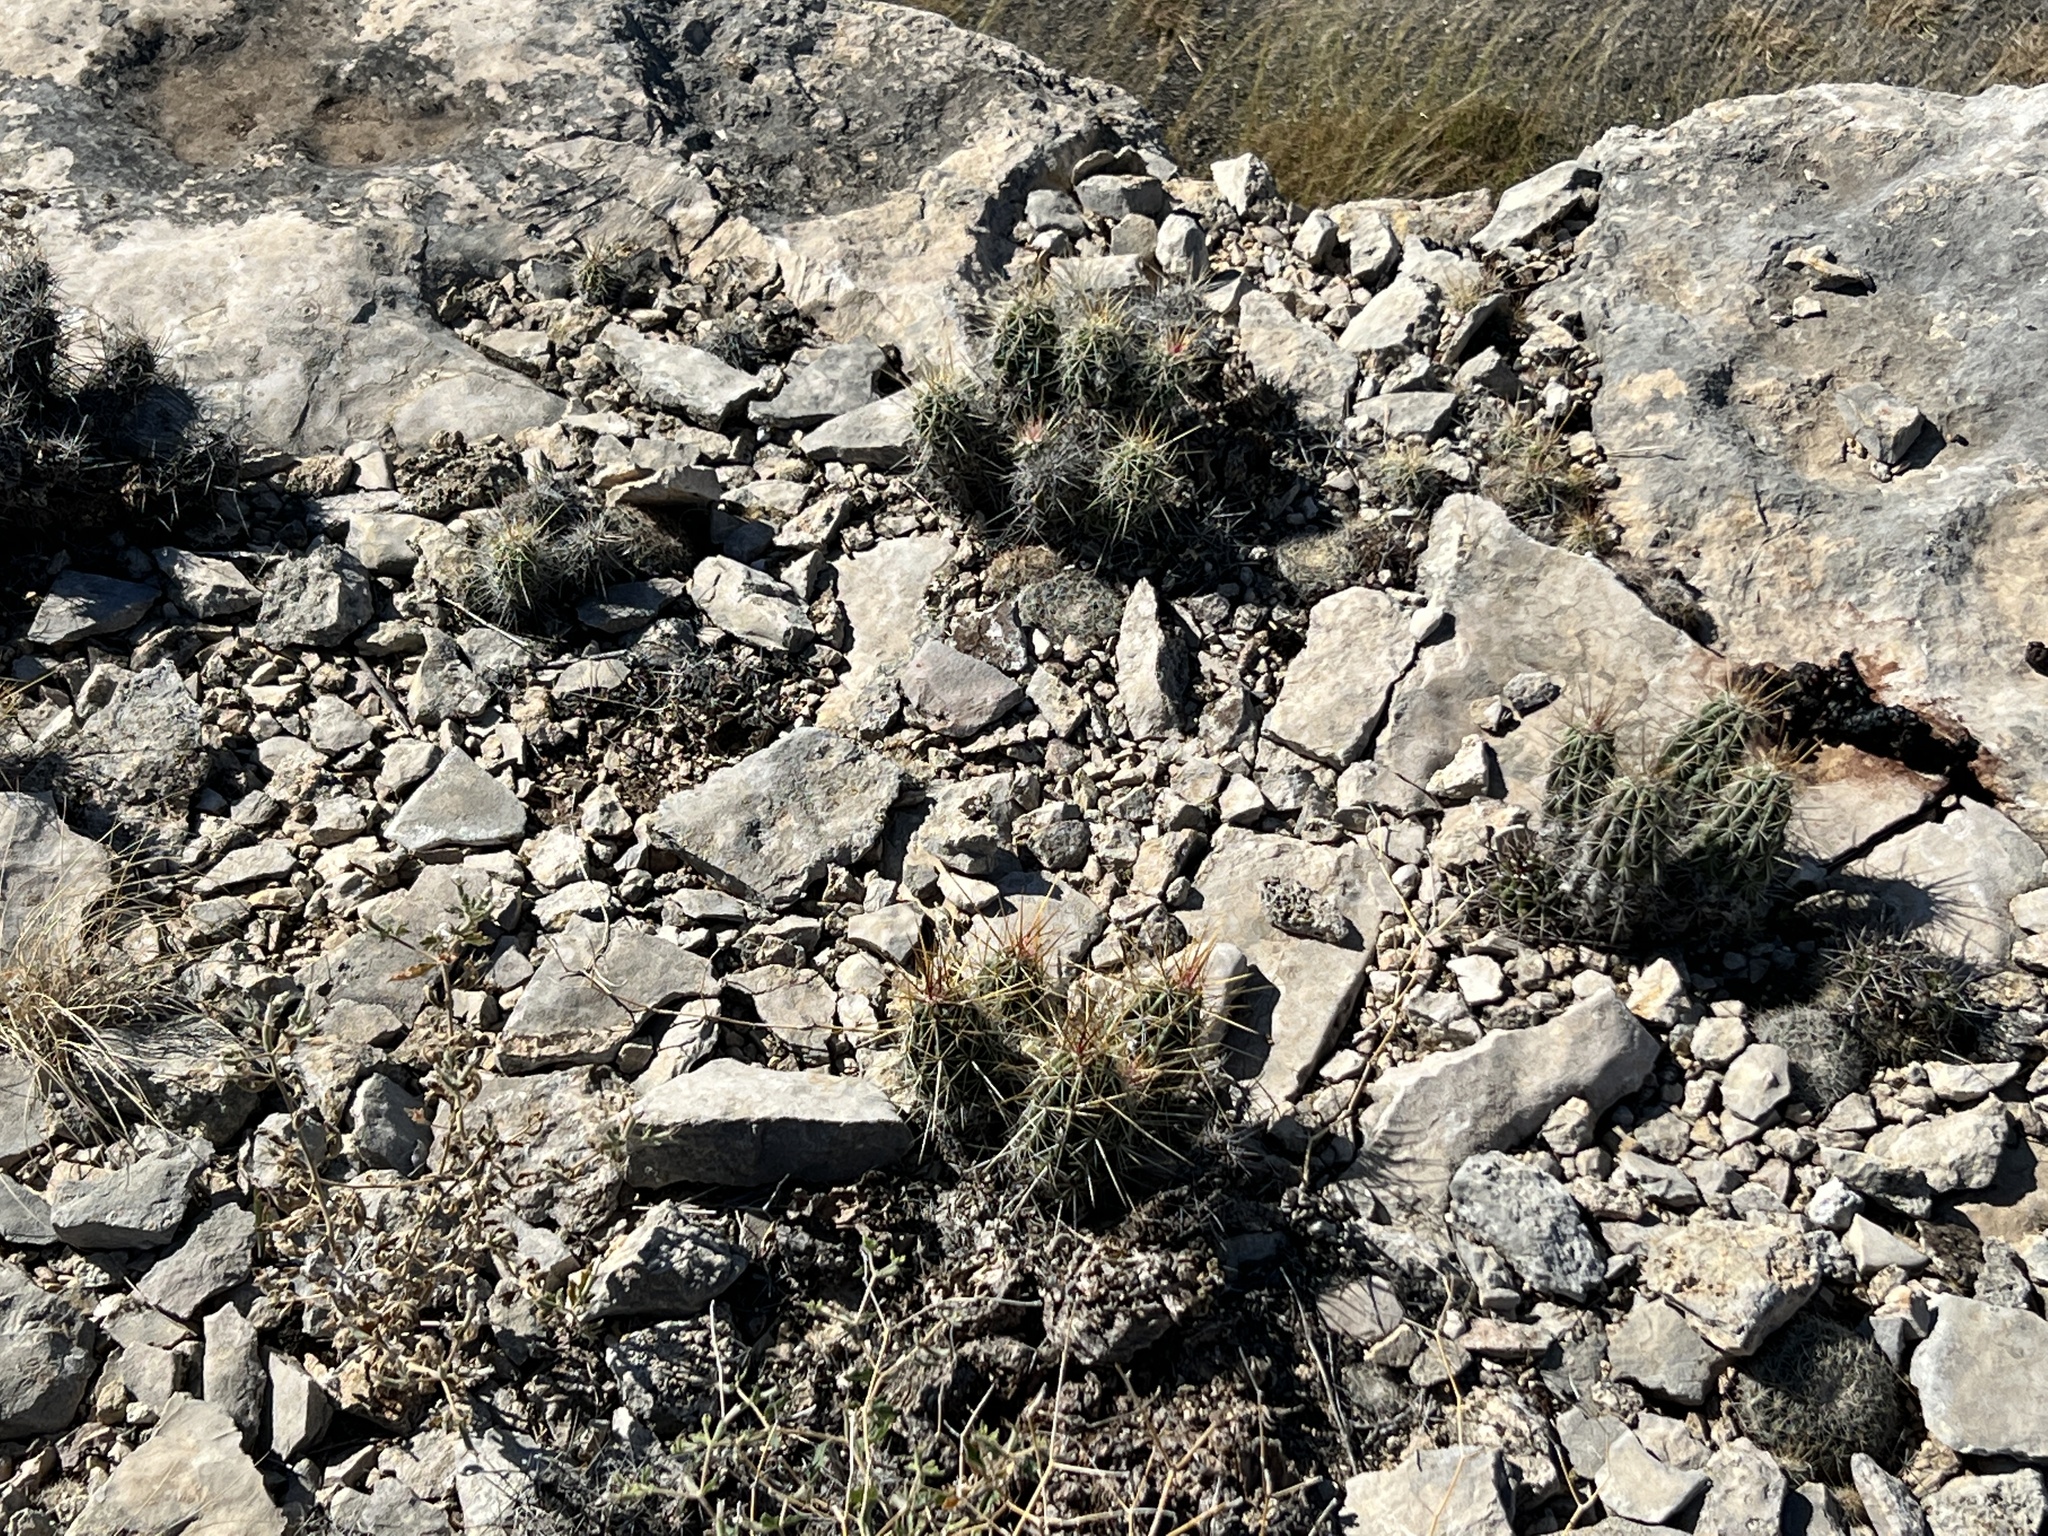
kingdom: Plantae
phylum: Tracheophyta
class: Magnoliopsida
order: Caryophyllales
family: Cactaceae
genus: Echinocereus
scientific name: Echinocereus enneacanthus
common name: Pitaya
